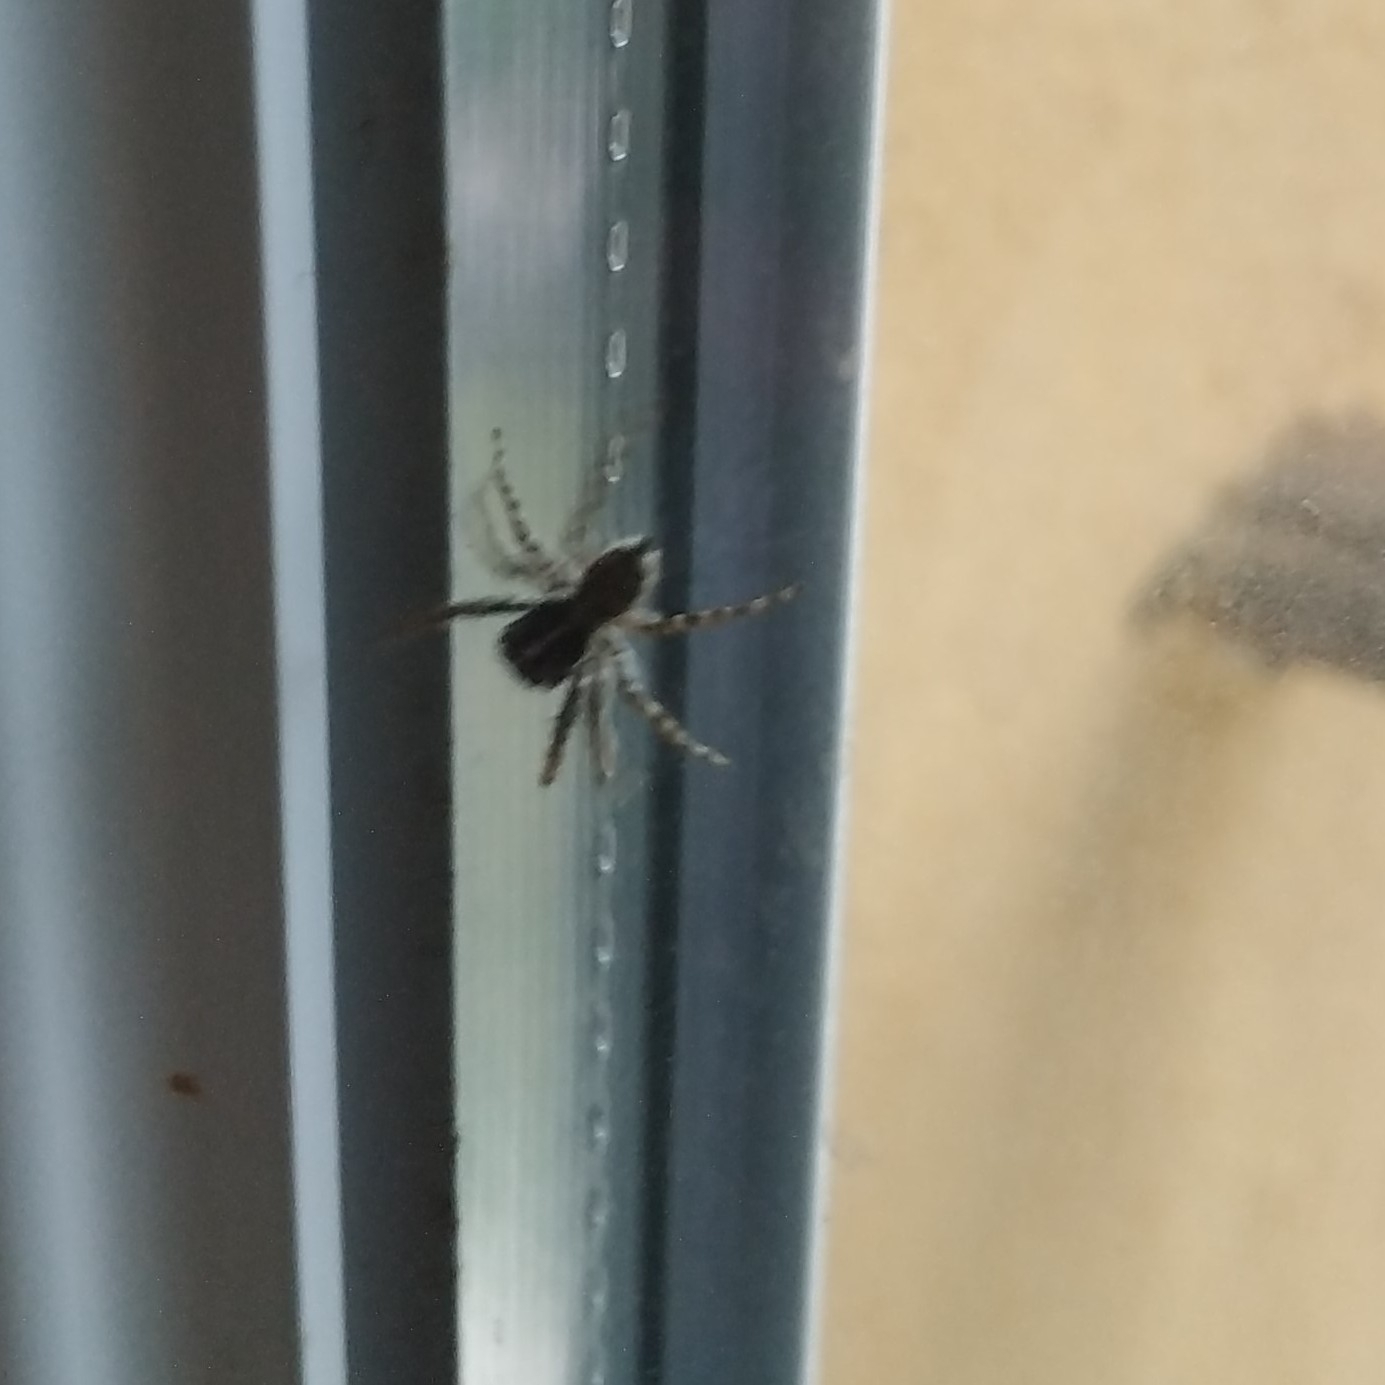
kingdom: Animalia
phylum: Arthropoda
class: Arachnida
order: Araneae
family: Salticidae
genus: Menemerus
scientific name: Menemerus semilimbatus
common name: Jumping spider
